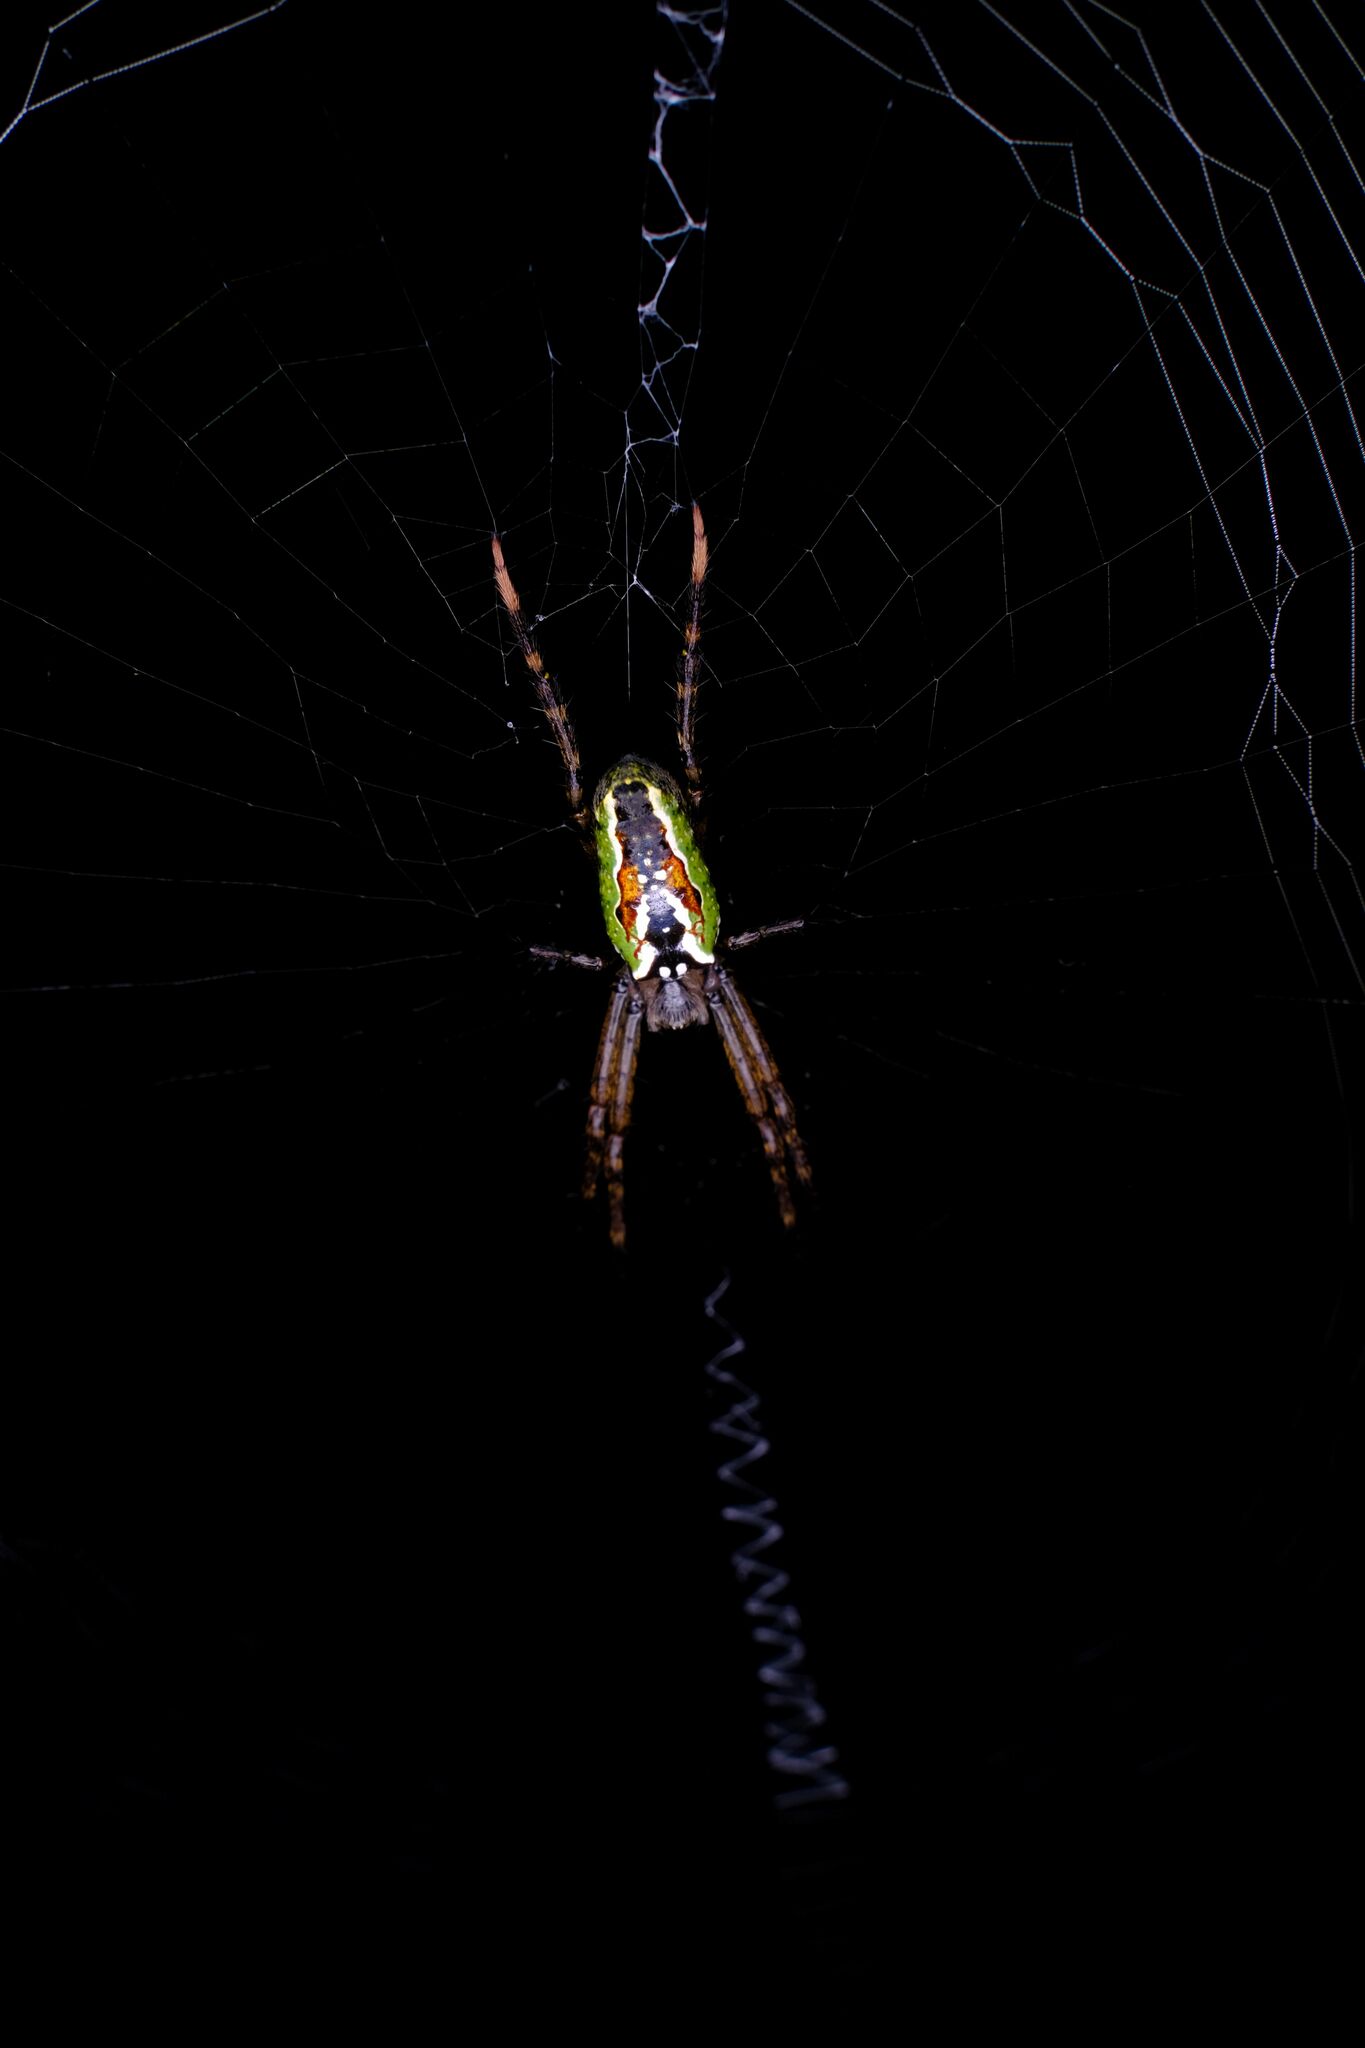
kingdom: Animalia
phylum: Arthropoda
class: Arachnida
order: Araneae
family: Araneidae
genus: Plebs
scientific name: Plebs bradleyi
